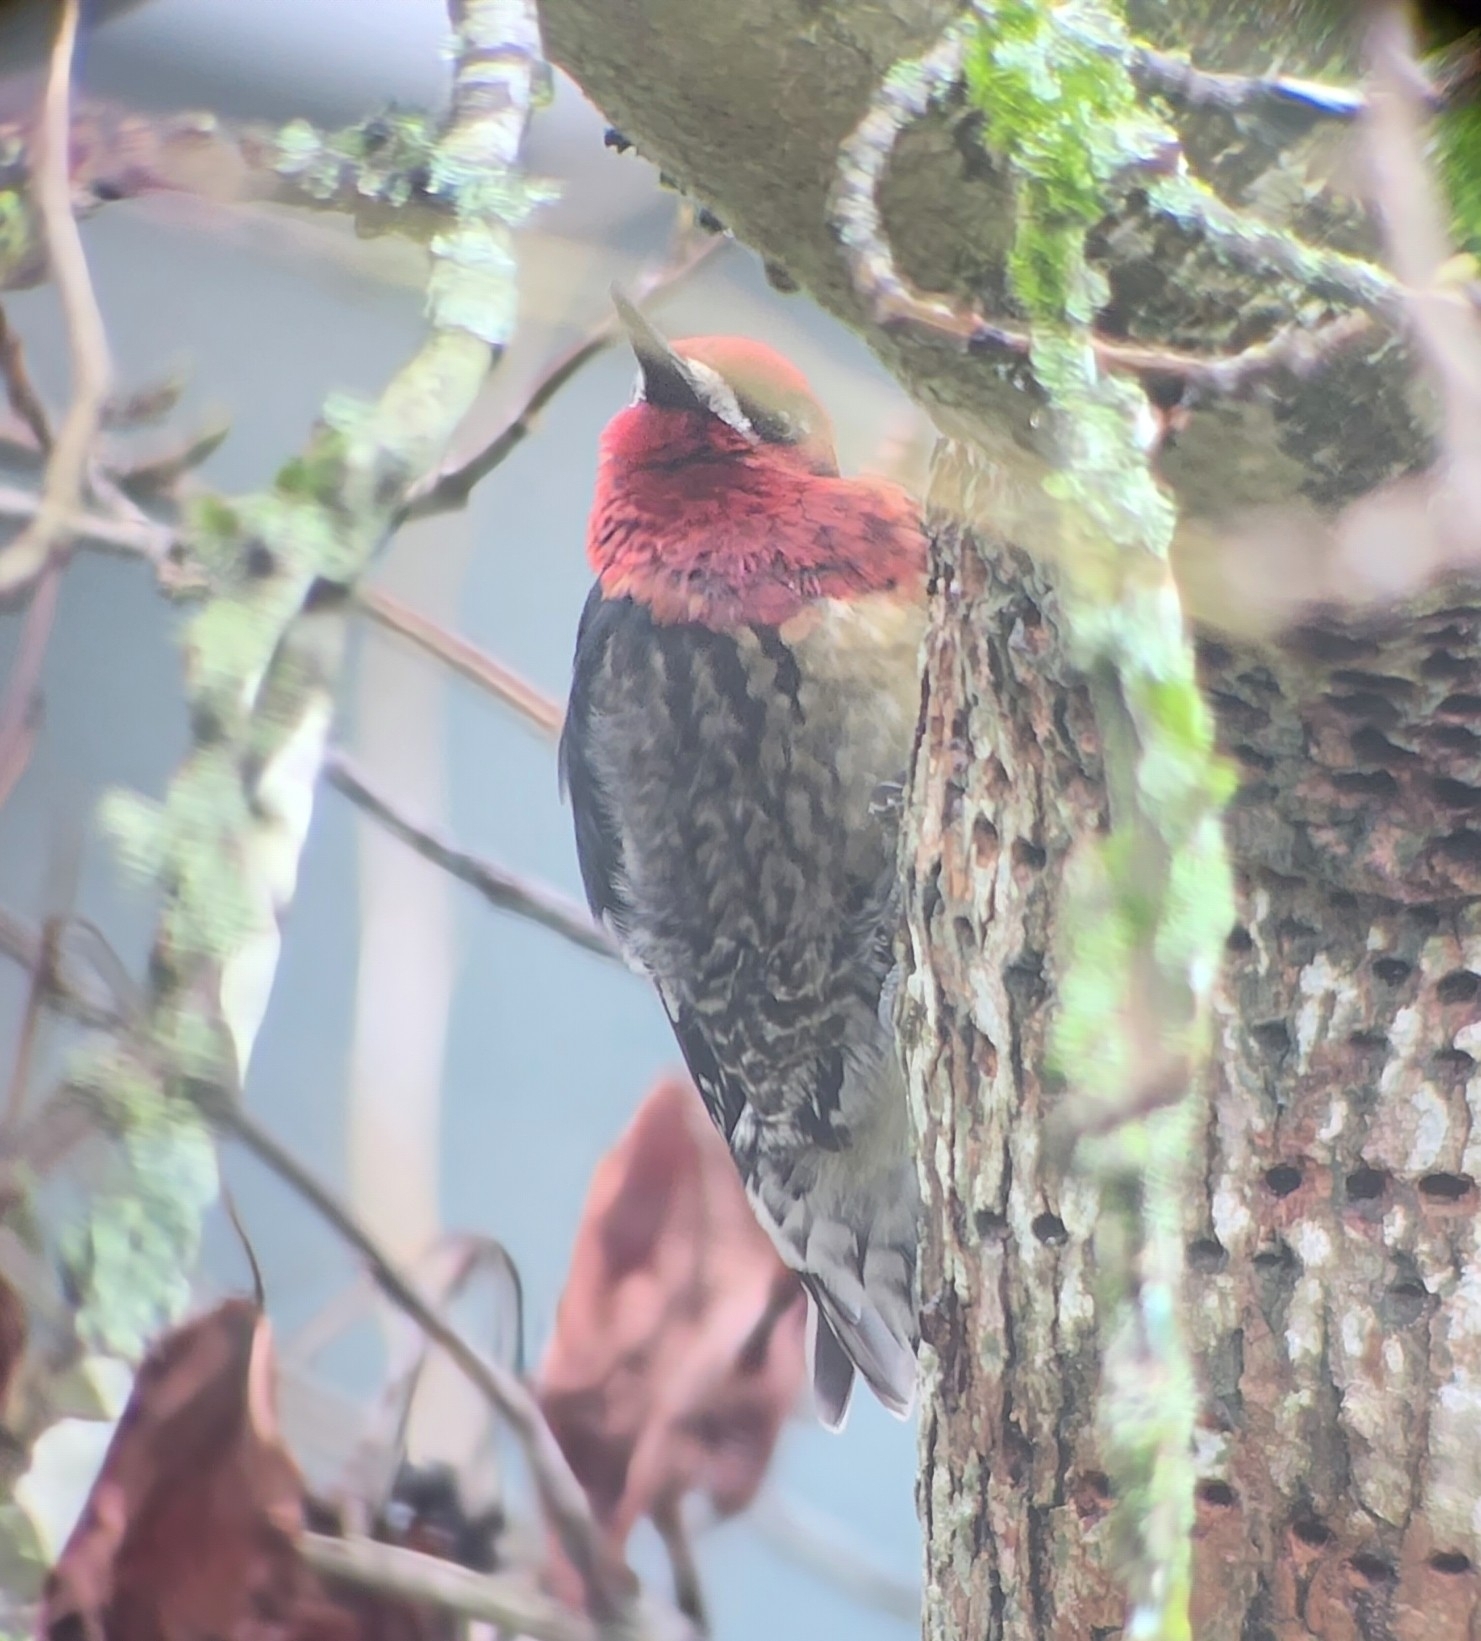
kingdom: Animalia
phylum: Chordata
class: Aves
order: Piciformes
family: Picidae
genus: Sphyrapicus
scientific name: Sphyrapicus ruber
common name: Red-breasted sapsucker
